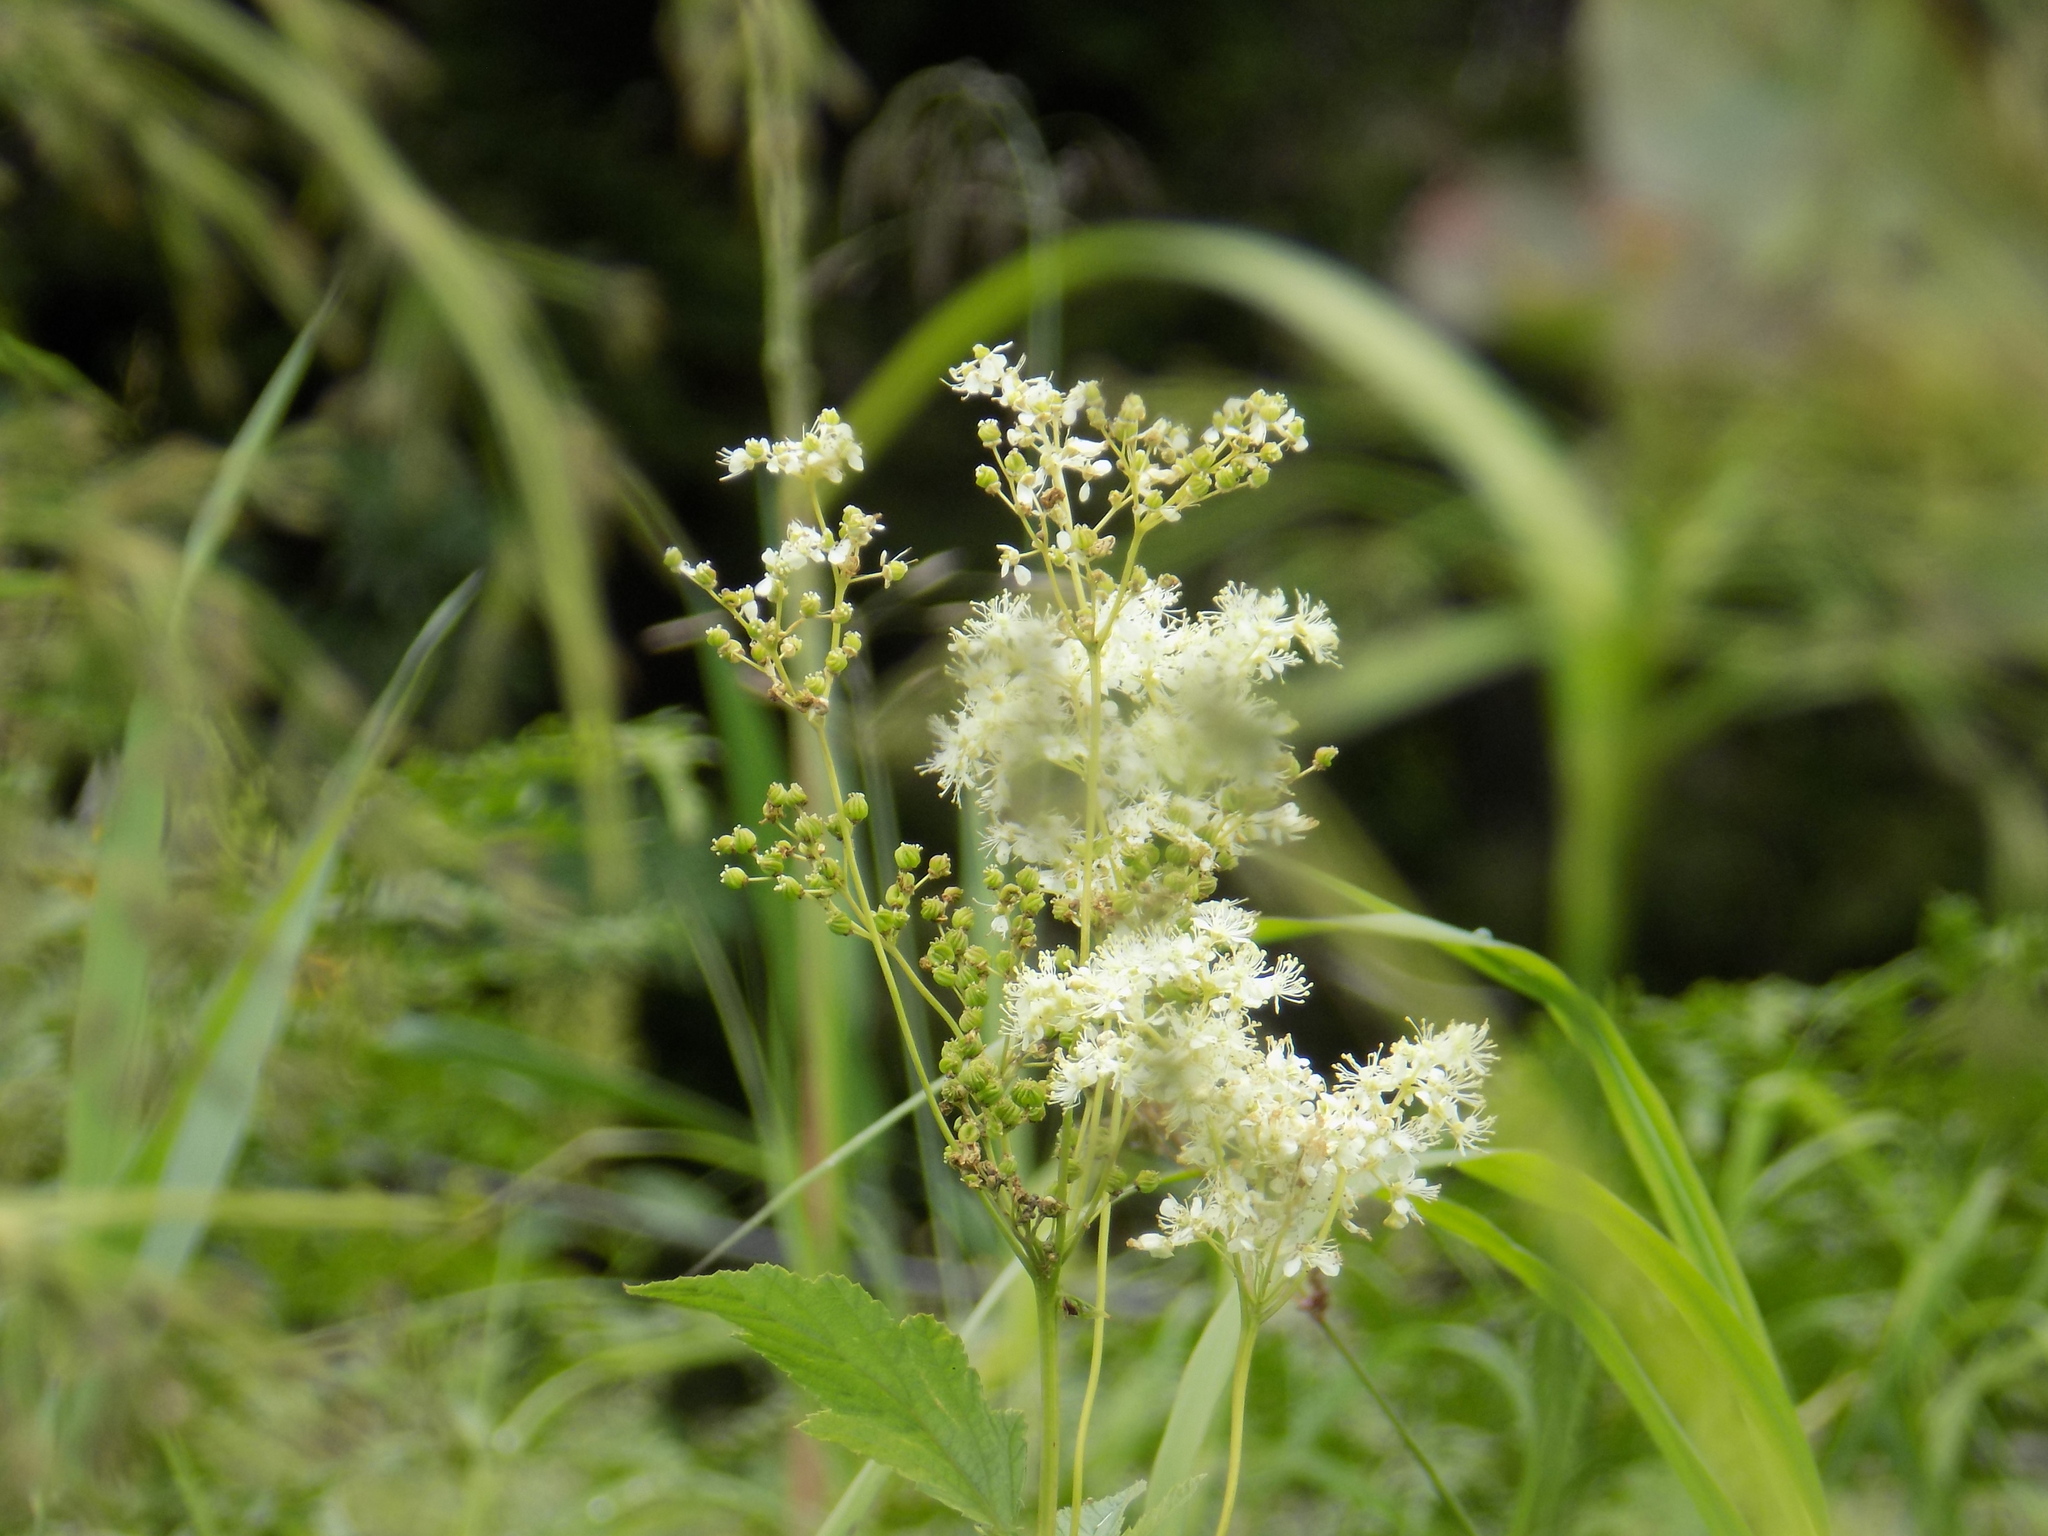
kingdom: Plantae
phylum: Tracheophyta
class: Magnoliopsida
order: Rosales
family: Rosaceae
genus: Filipendula
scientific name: Filipendula ulmaria
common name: Meadowsweet
